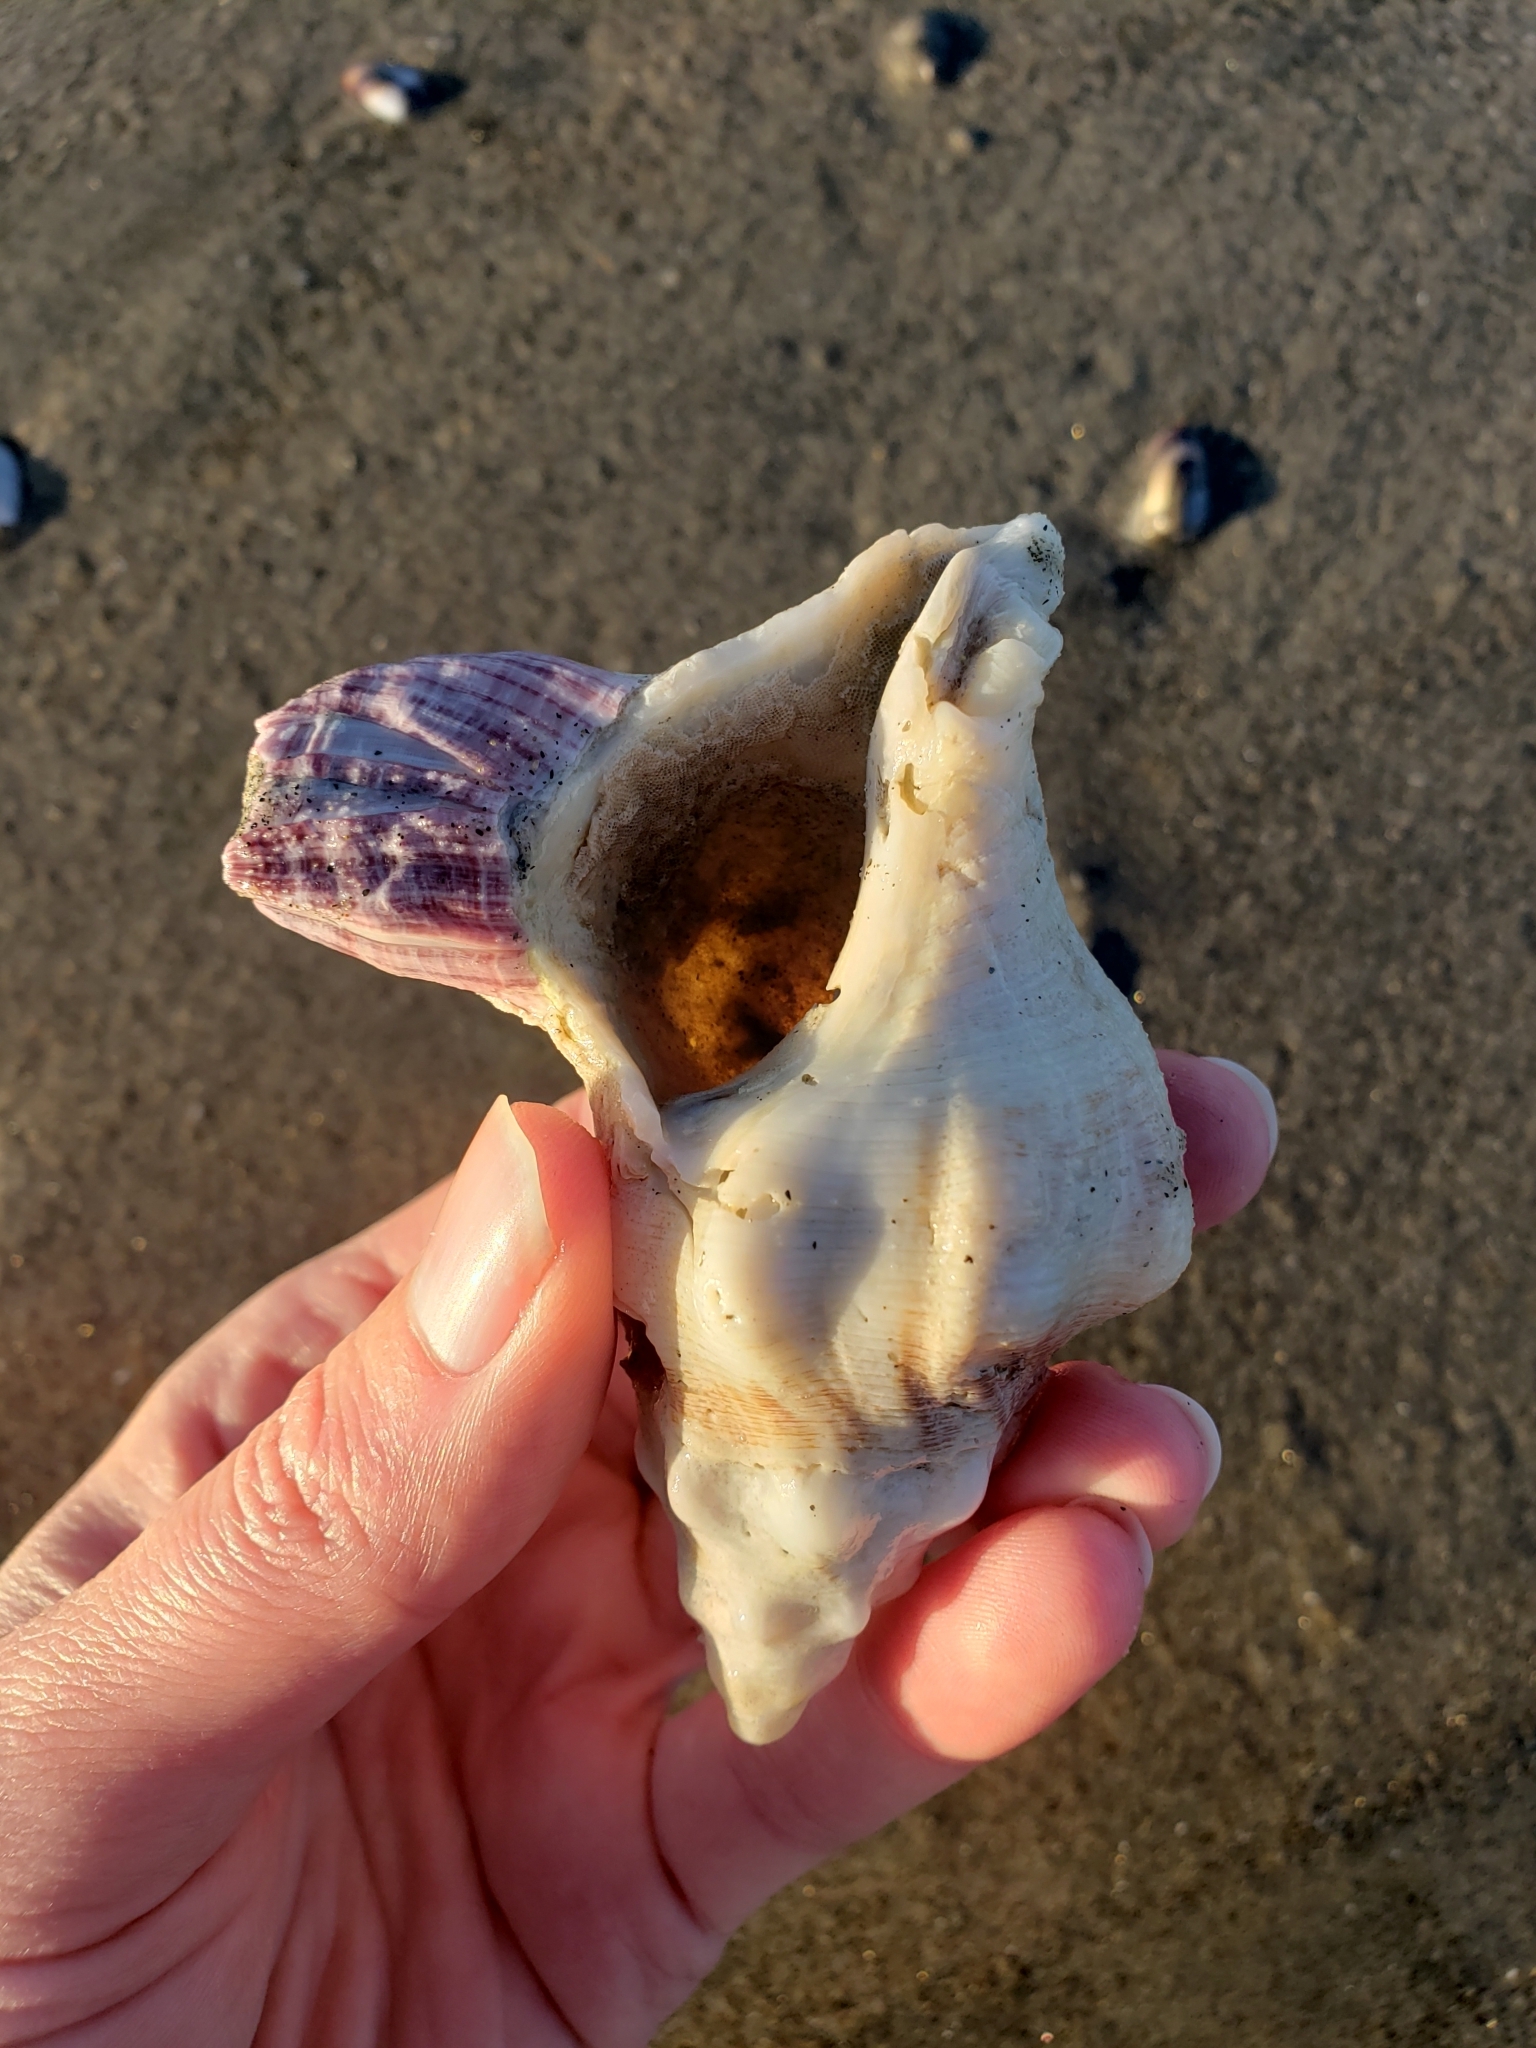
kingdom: Animalia
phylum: Mollusca
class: Gastropoda
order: Neogastropoda
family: Austrosiphonidae
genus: Kelletia
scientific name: Kelletia kelletii
